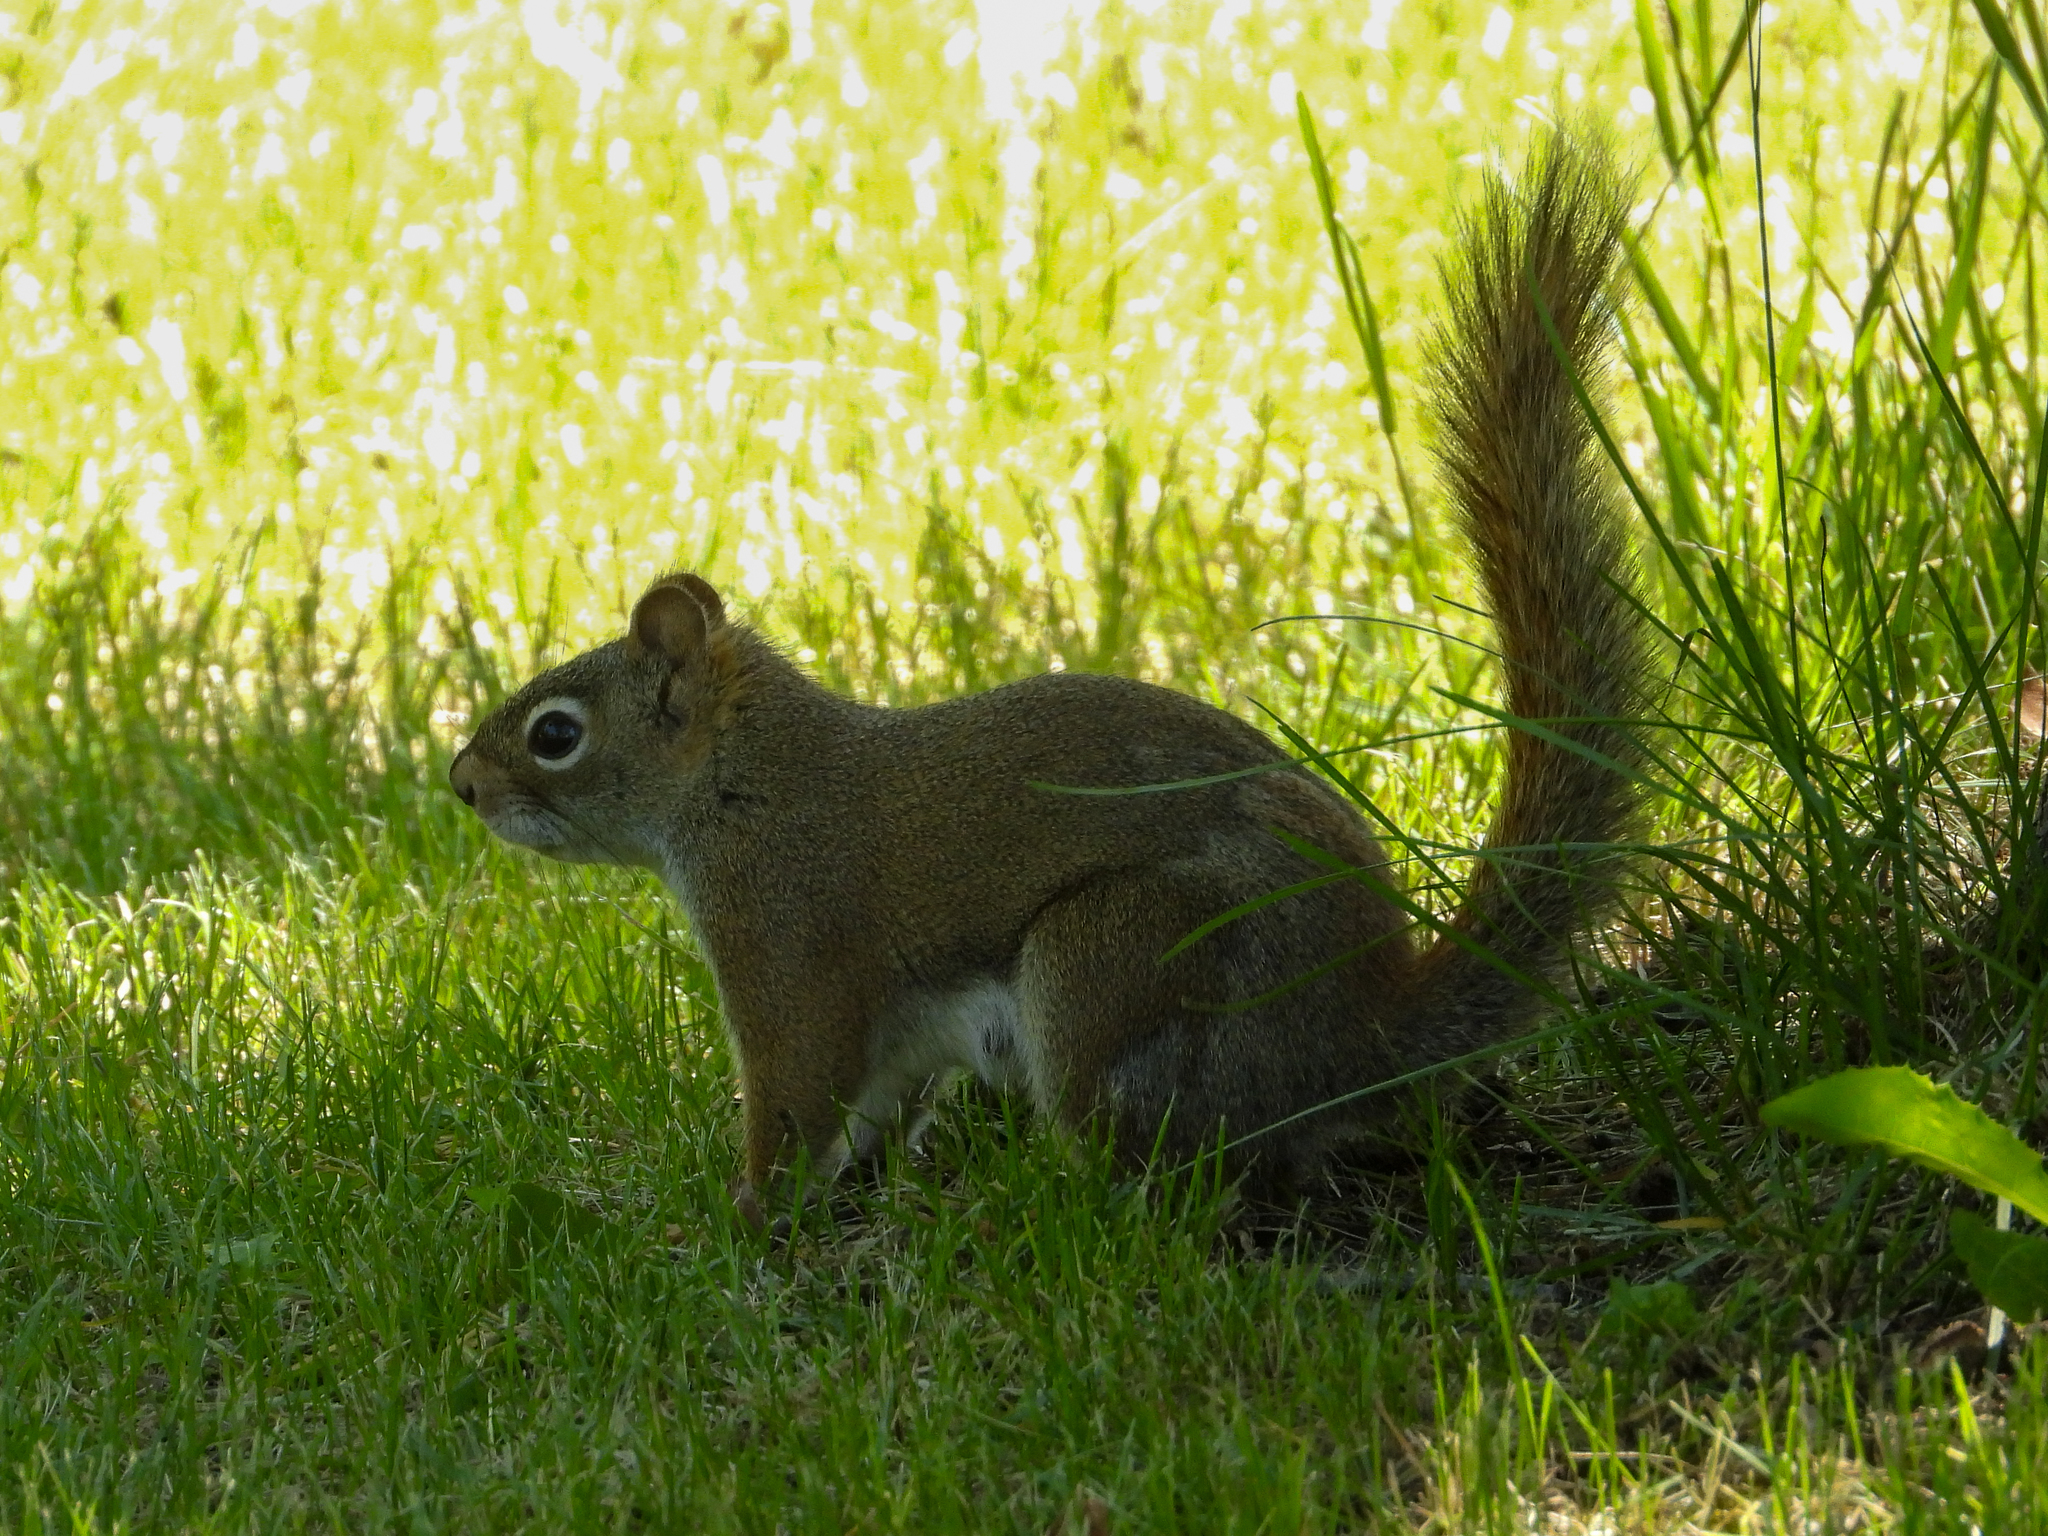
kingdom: Animalia
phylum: Chordata
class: Mammalia
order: Rodentia
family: Sciuridae
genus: Tamiasciurus
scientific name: Tamiasciurus hudsonicus
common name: Red squirrel
